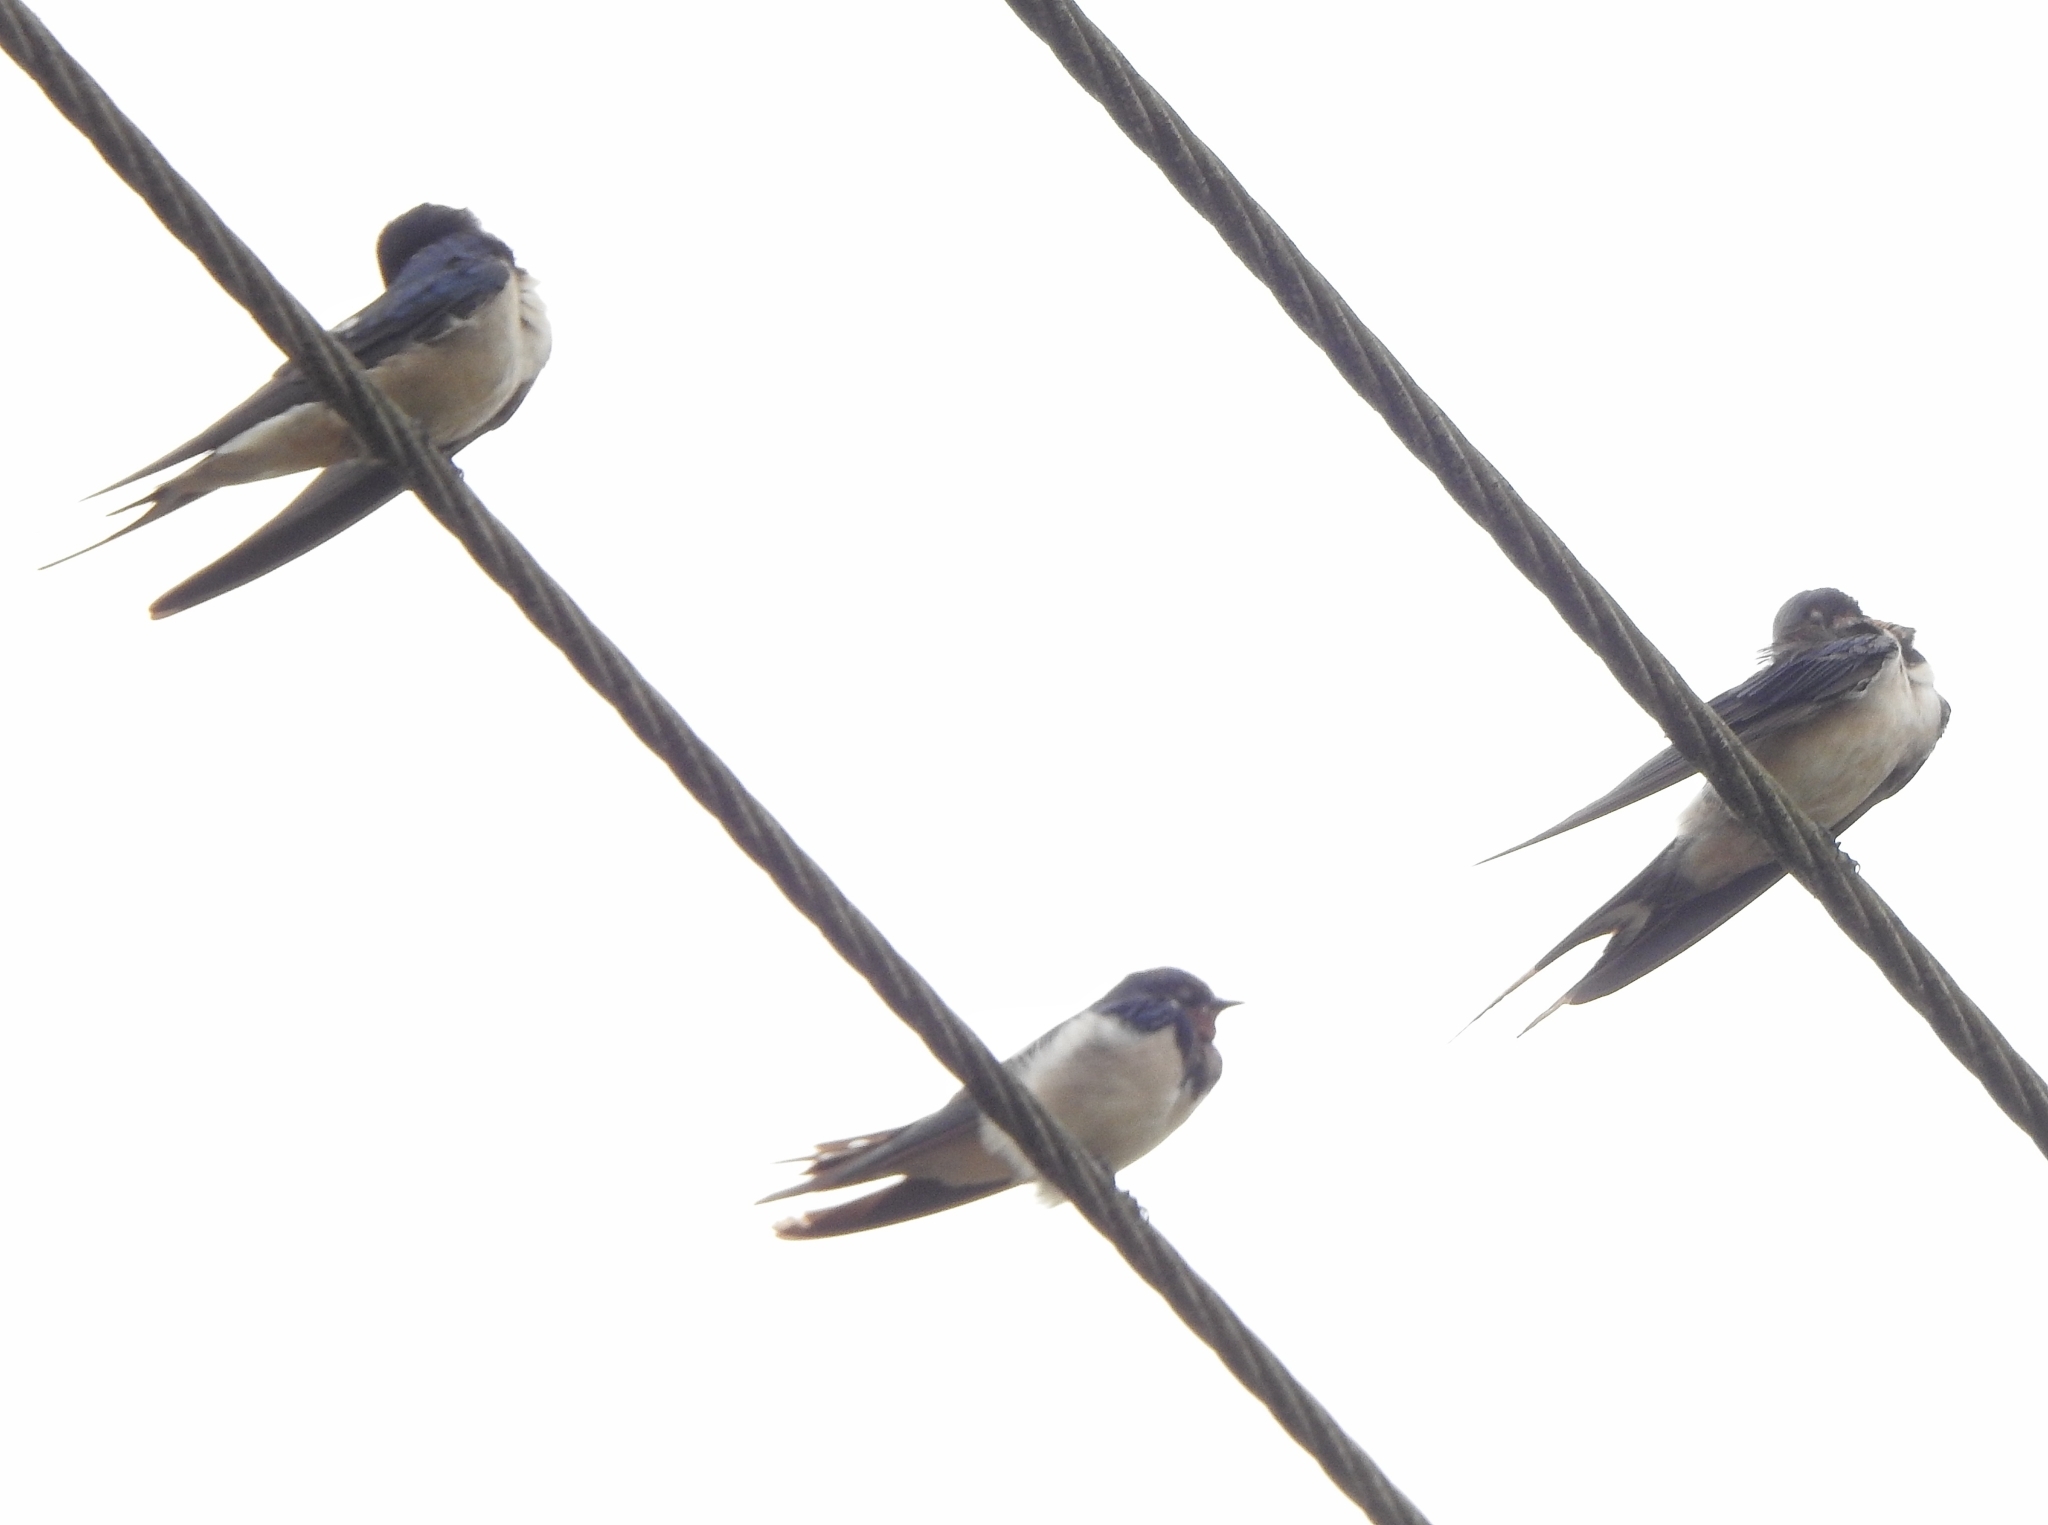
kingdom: Animalia
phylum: Chordata
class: Aves
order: Passeriformes
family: Hirundinidae
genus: Hirundo
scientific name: Hirundo rustica
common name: Barn swallow
